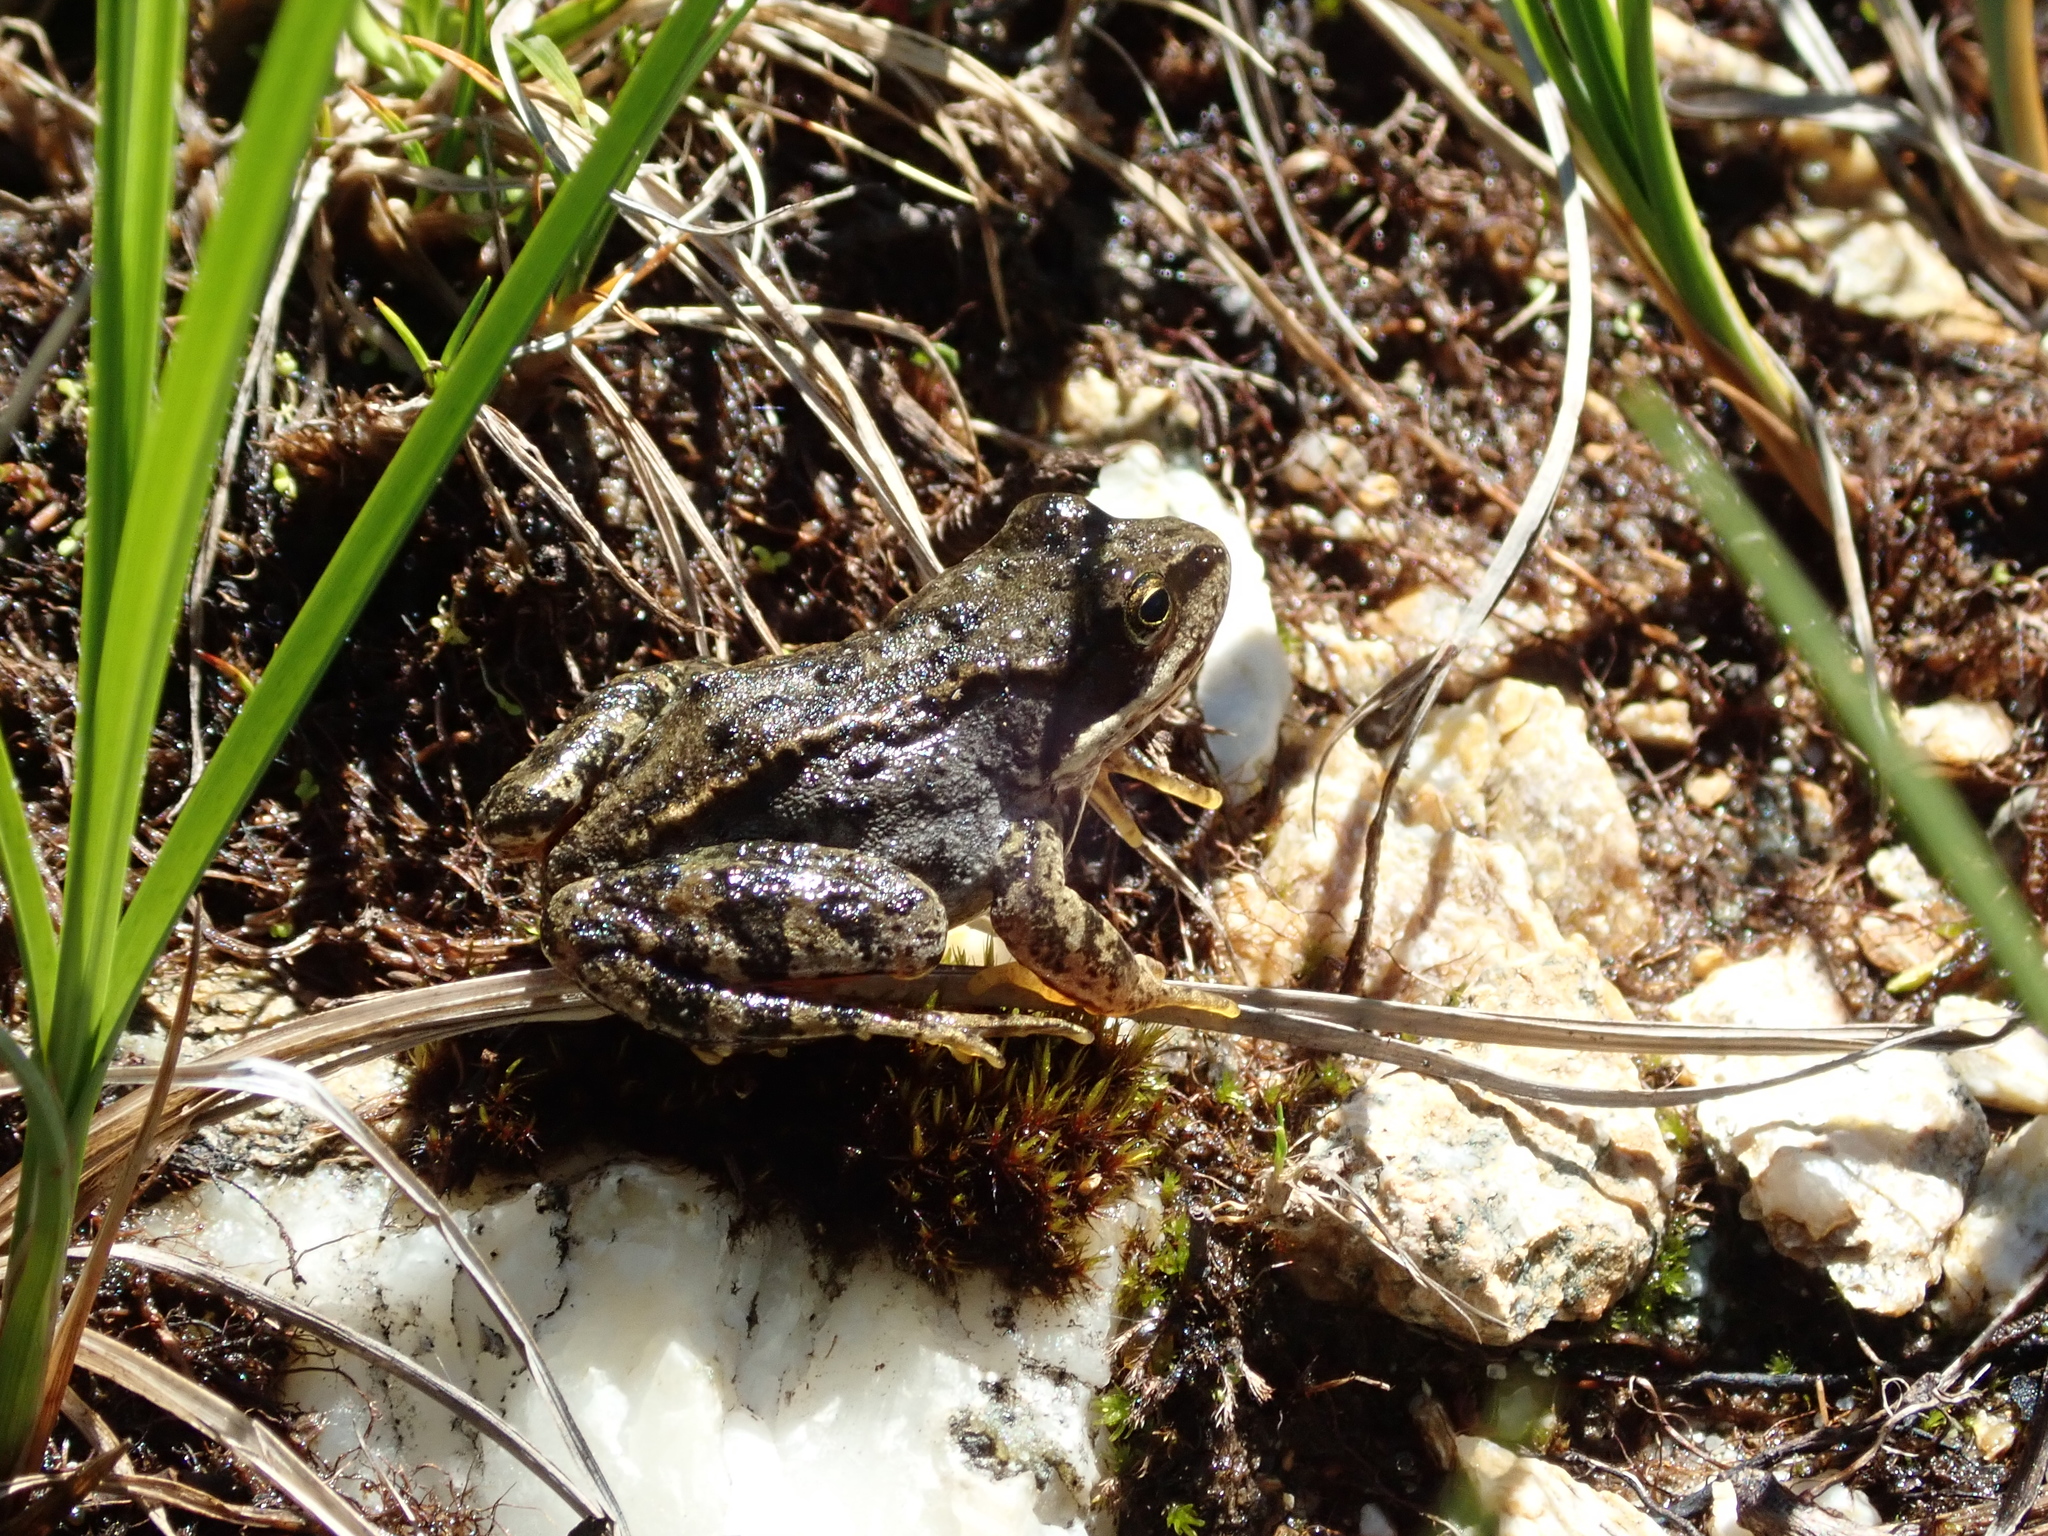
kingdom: Animalia
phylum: Chordata
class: Amphibia
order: Anura
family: Ranidae
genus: Rana
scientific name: Rana temporaria
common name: Common frog
